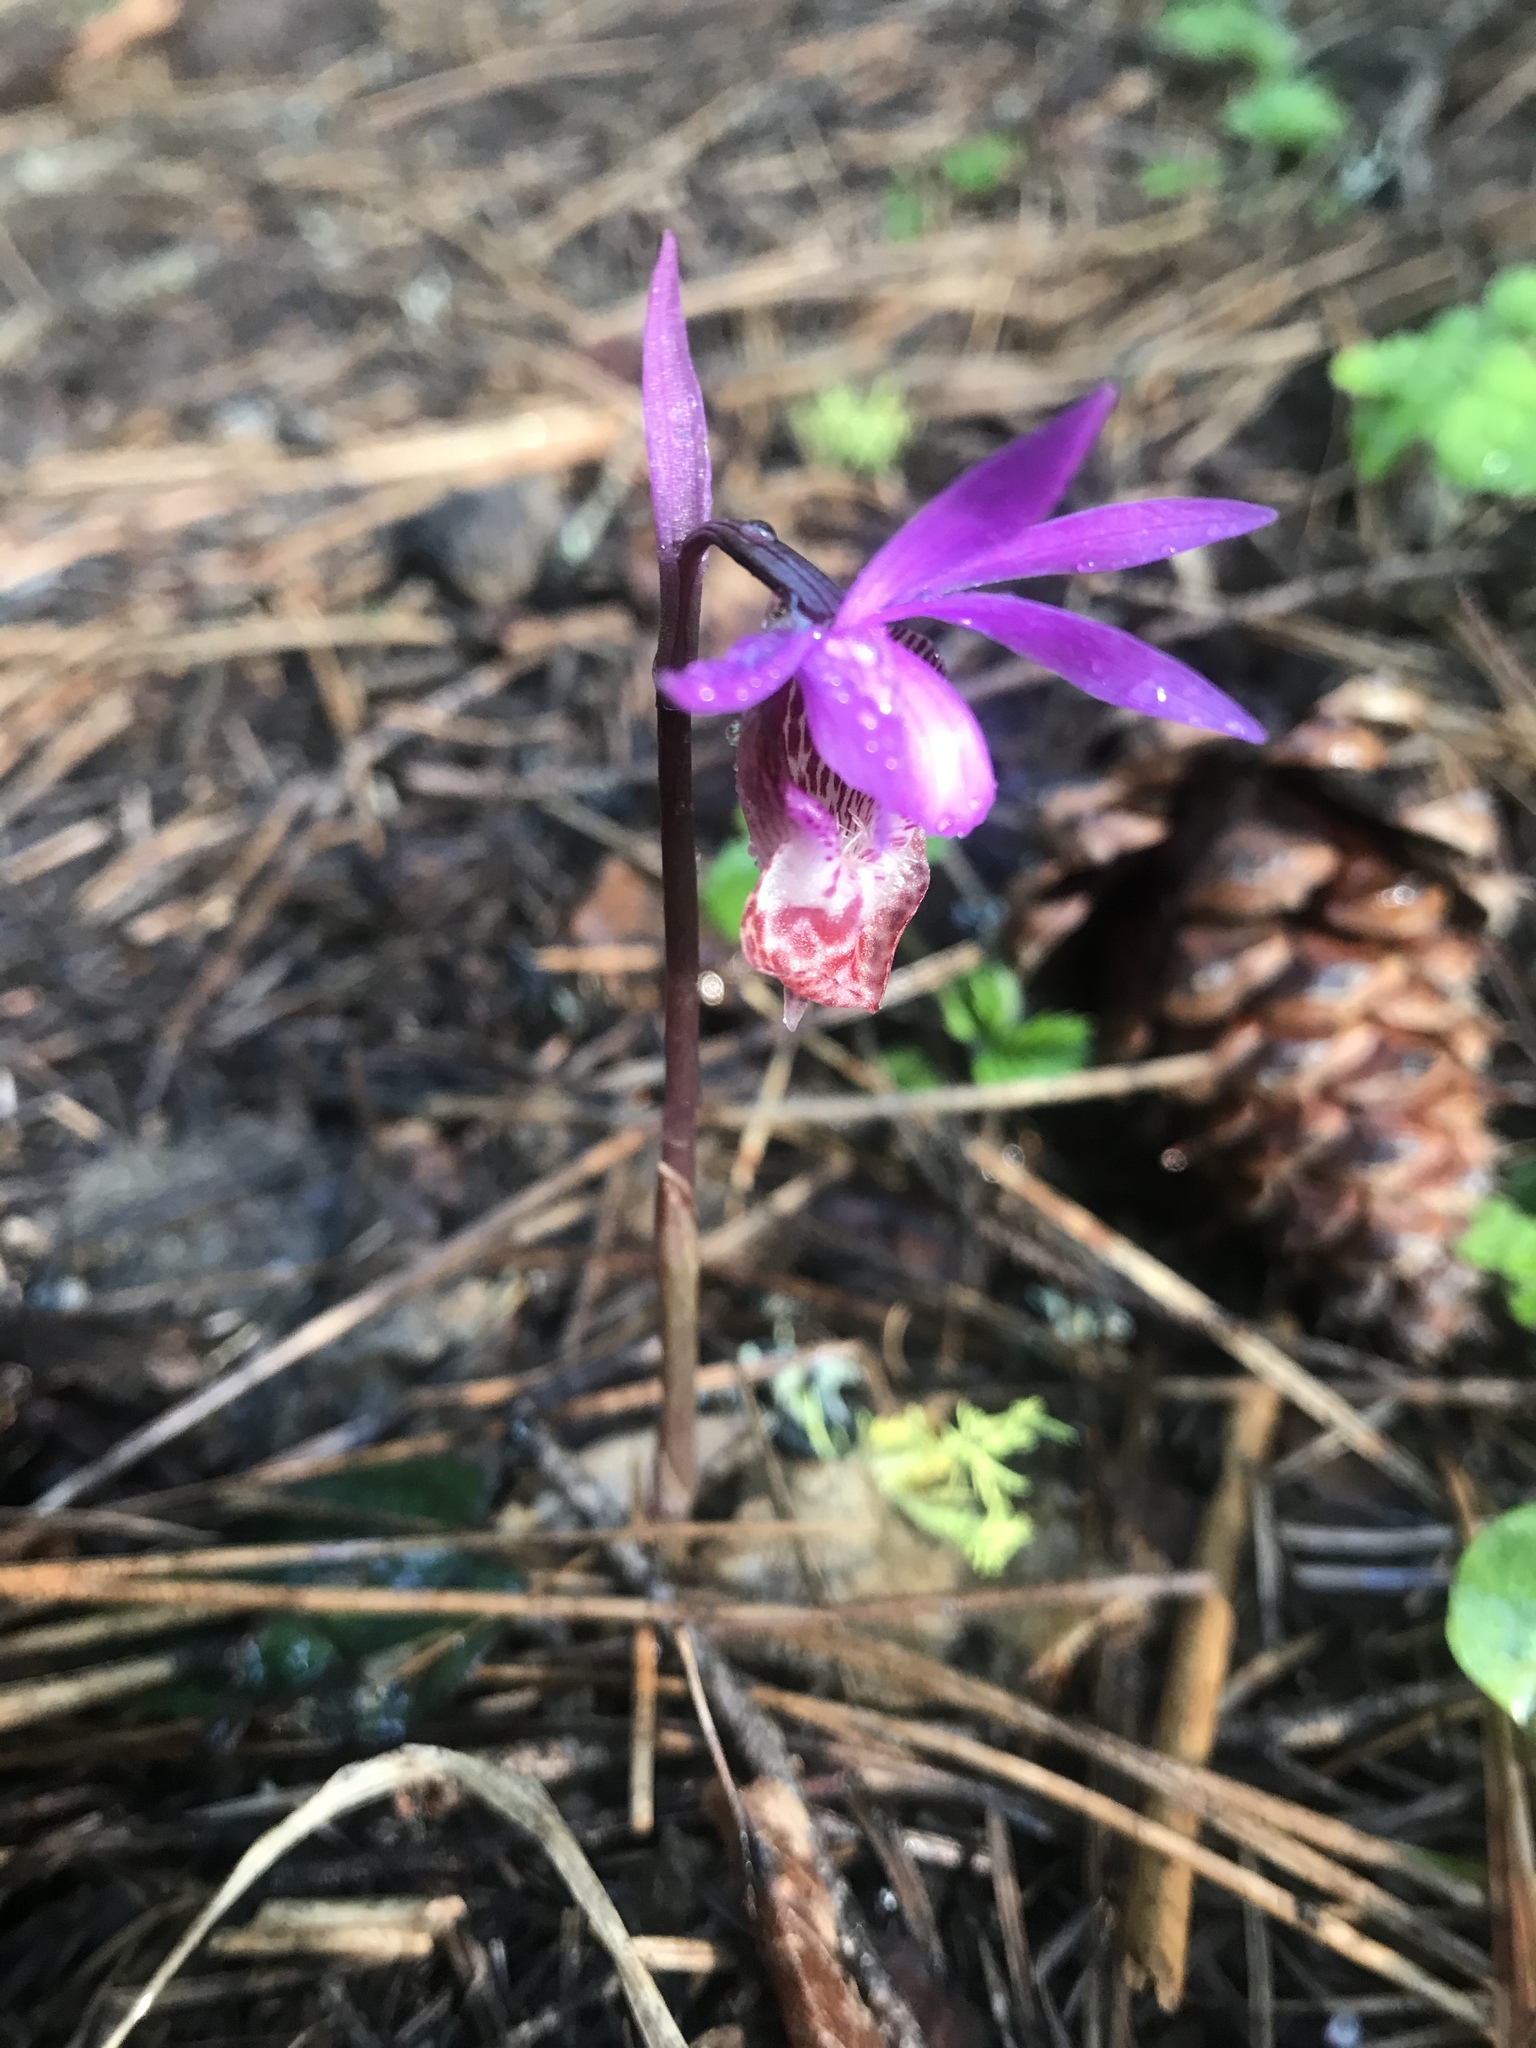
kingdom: Plantae
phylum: Tracheophyta
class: Liliopsida
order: Asparagales
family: Orchidaceae
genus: Calypso
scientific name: Calypso bulbosa
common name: Calypso
